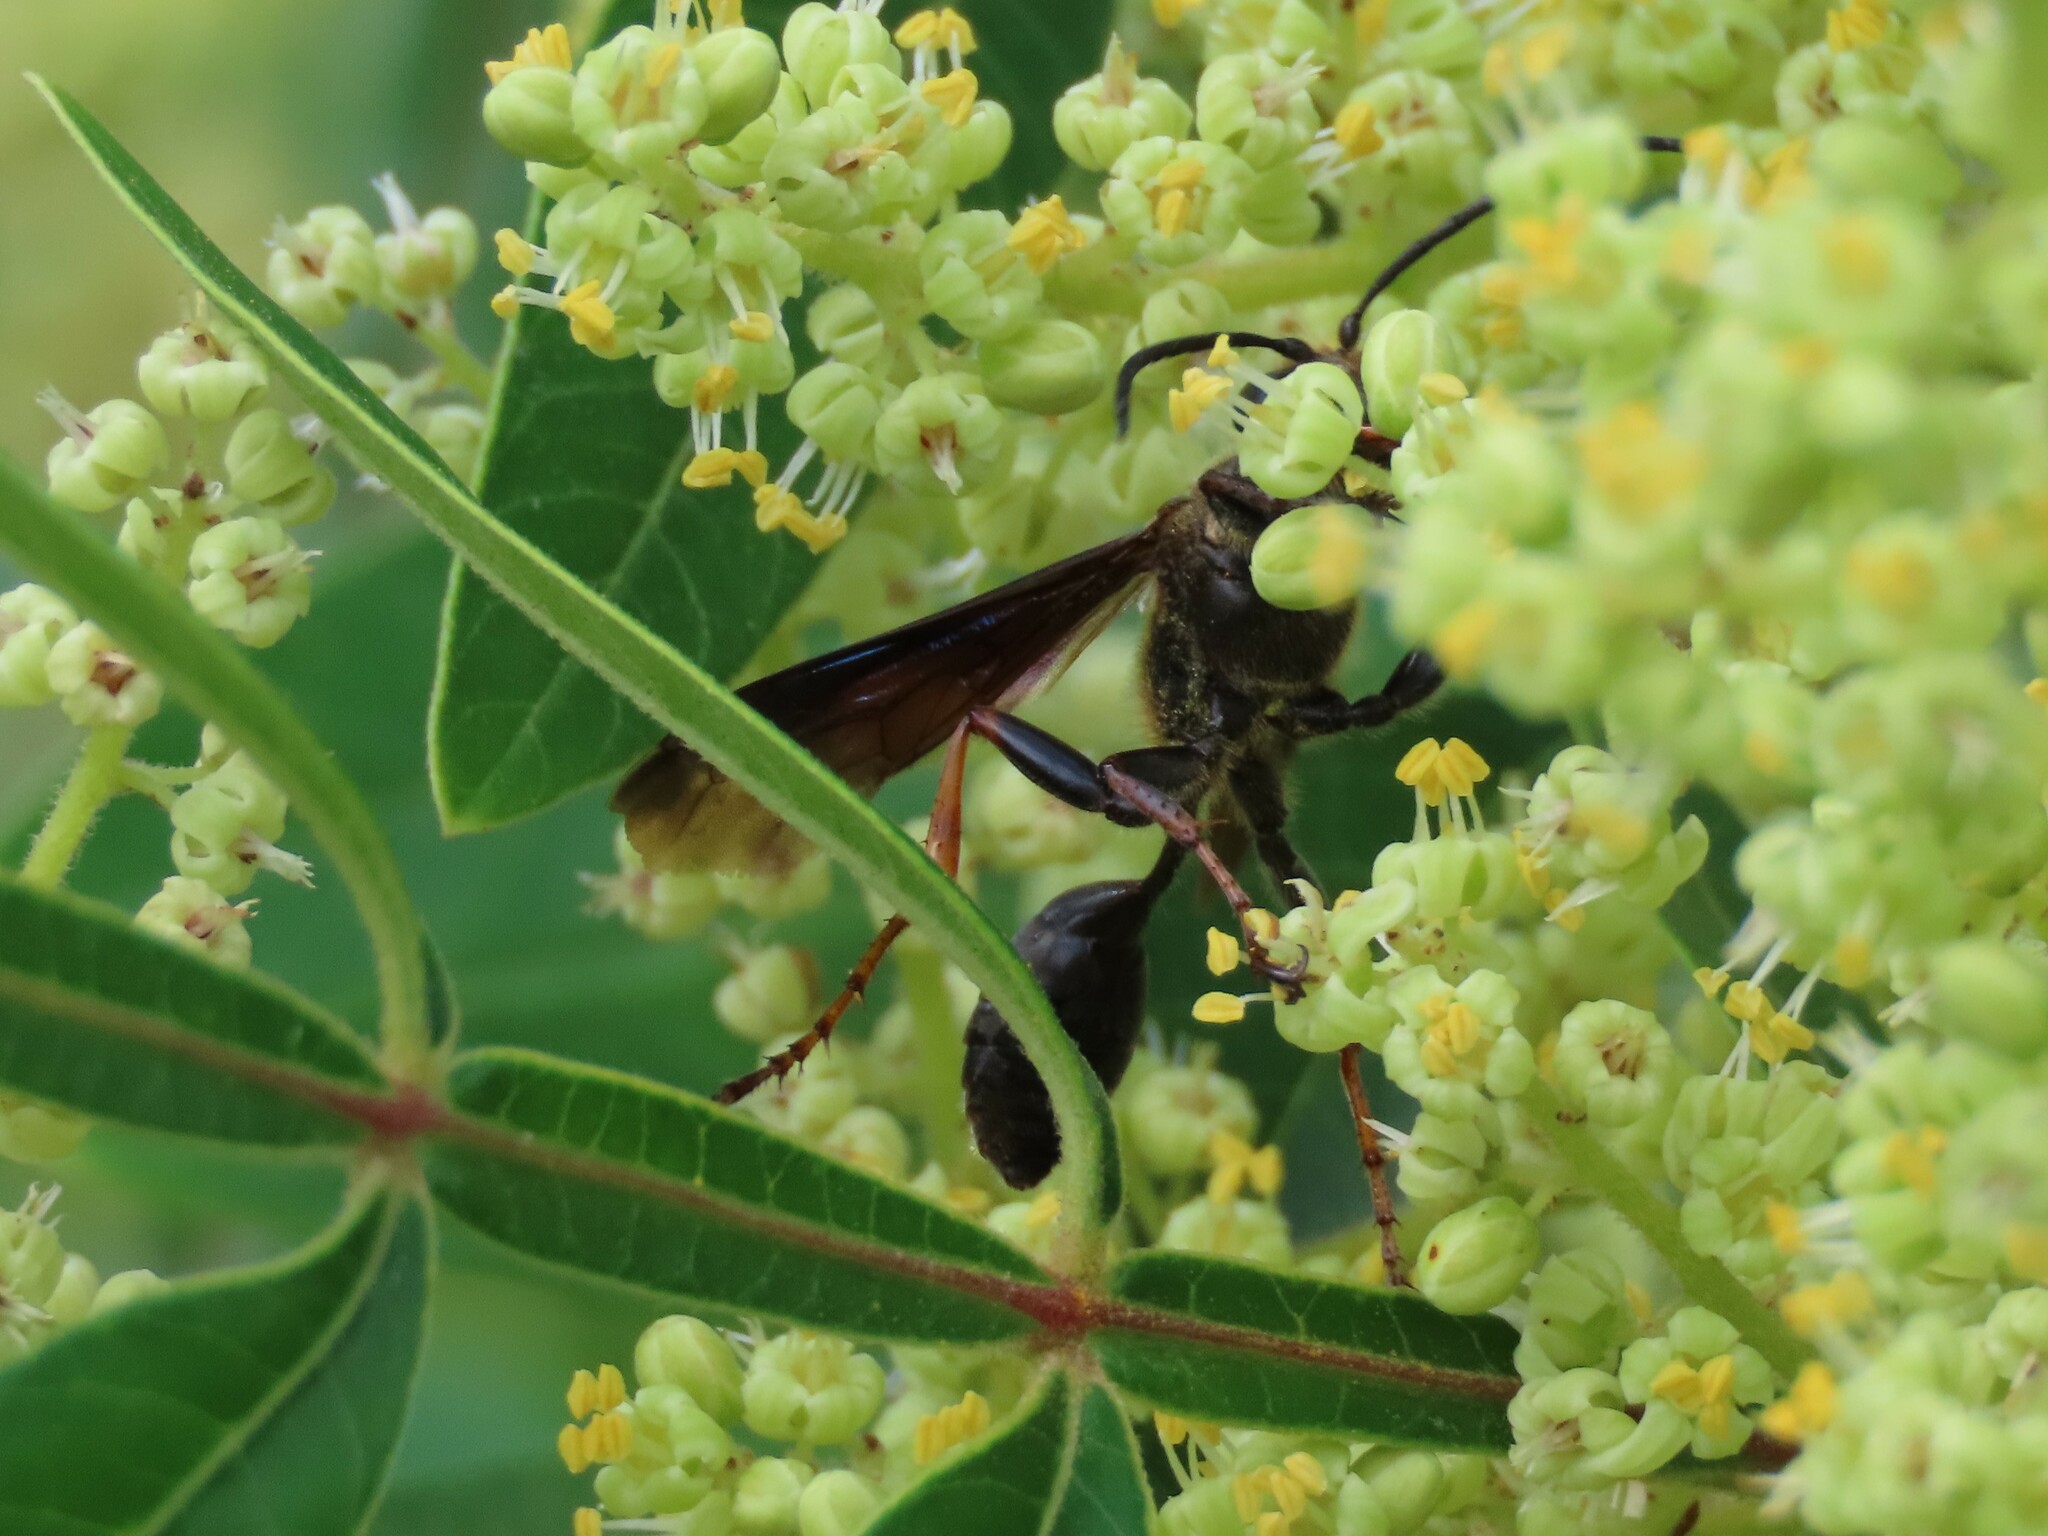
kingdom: Animalia
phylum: Arthropoda
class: Insecta
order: Hymenoptera
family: Sphecidae
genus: Isodontia
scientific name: Isodontia auripes
